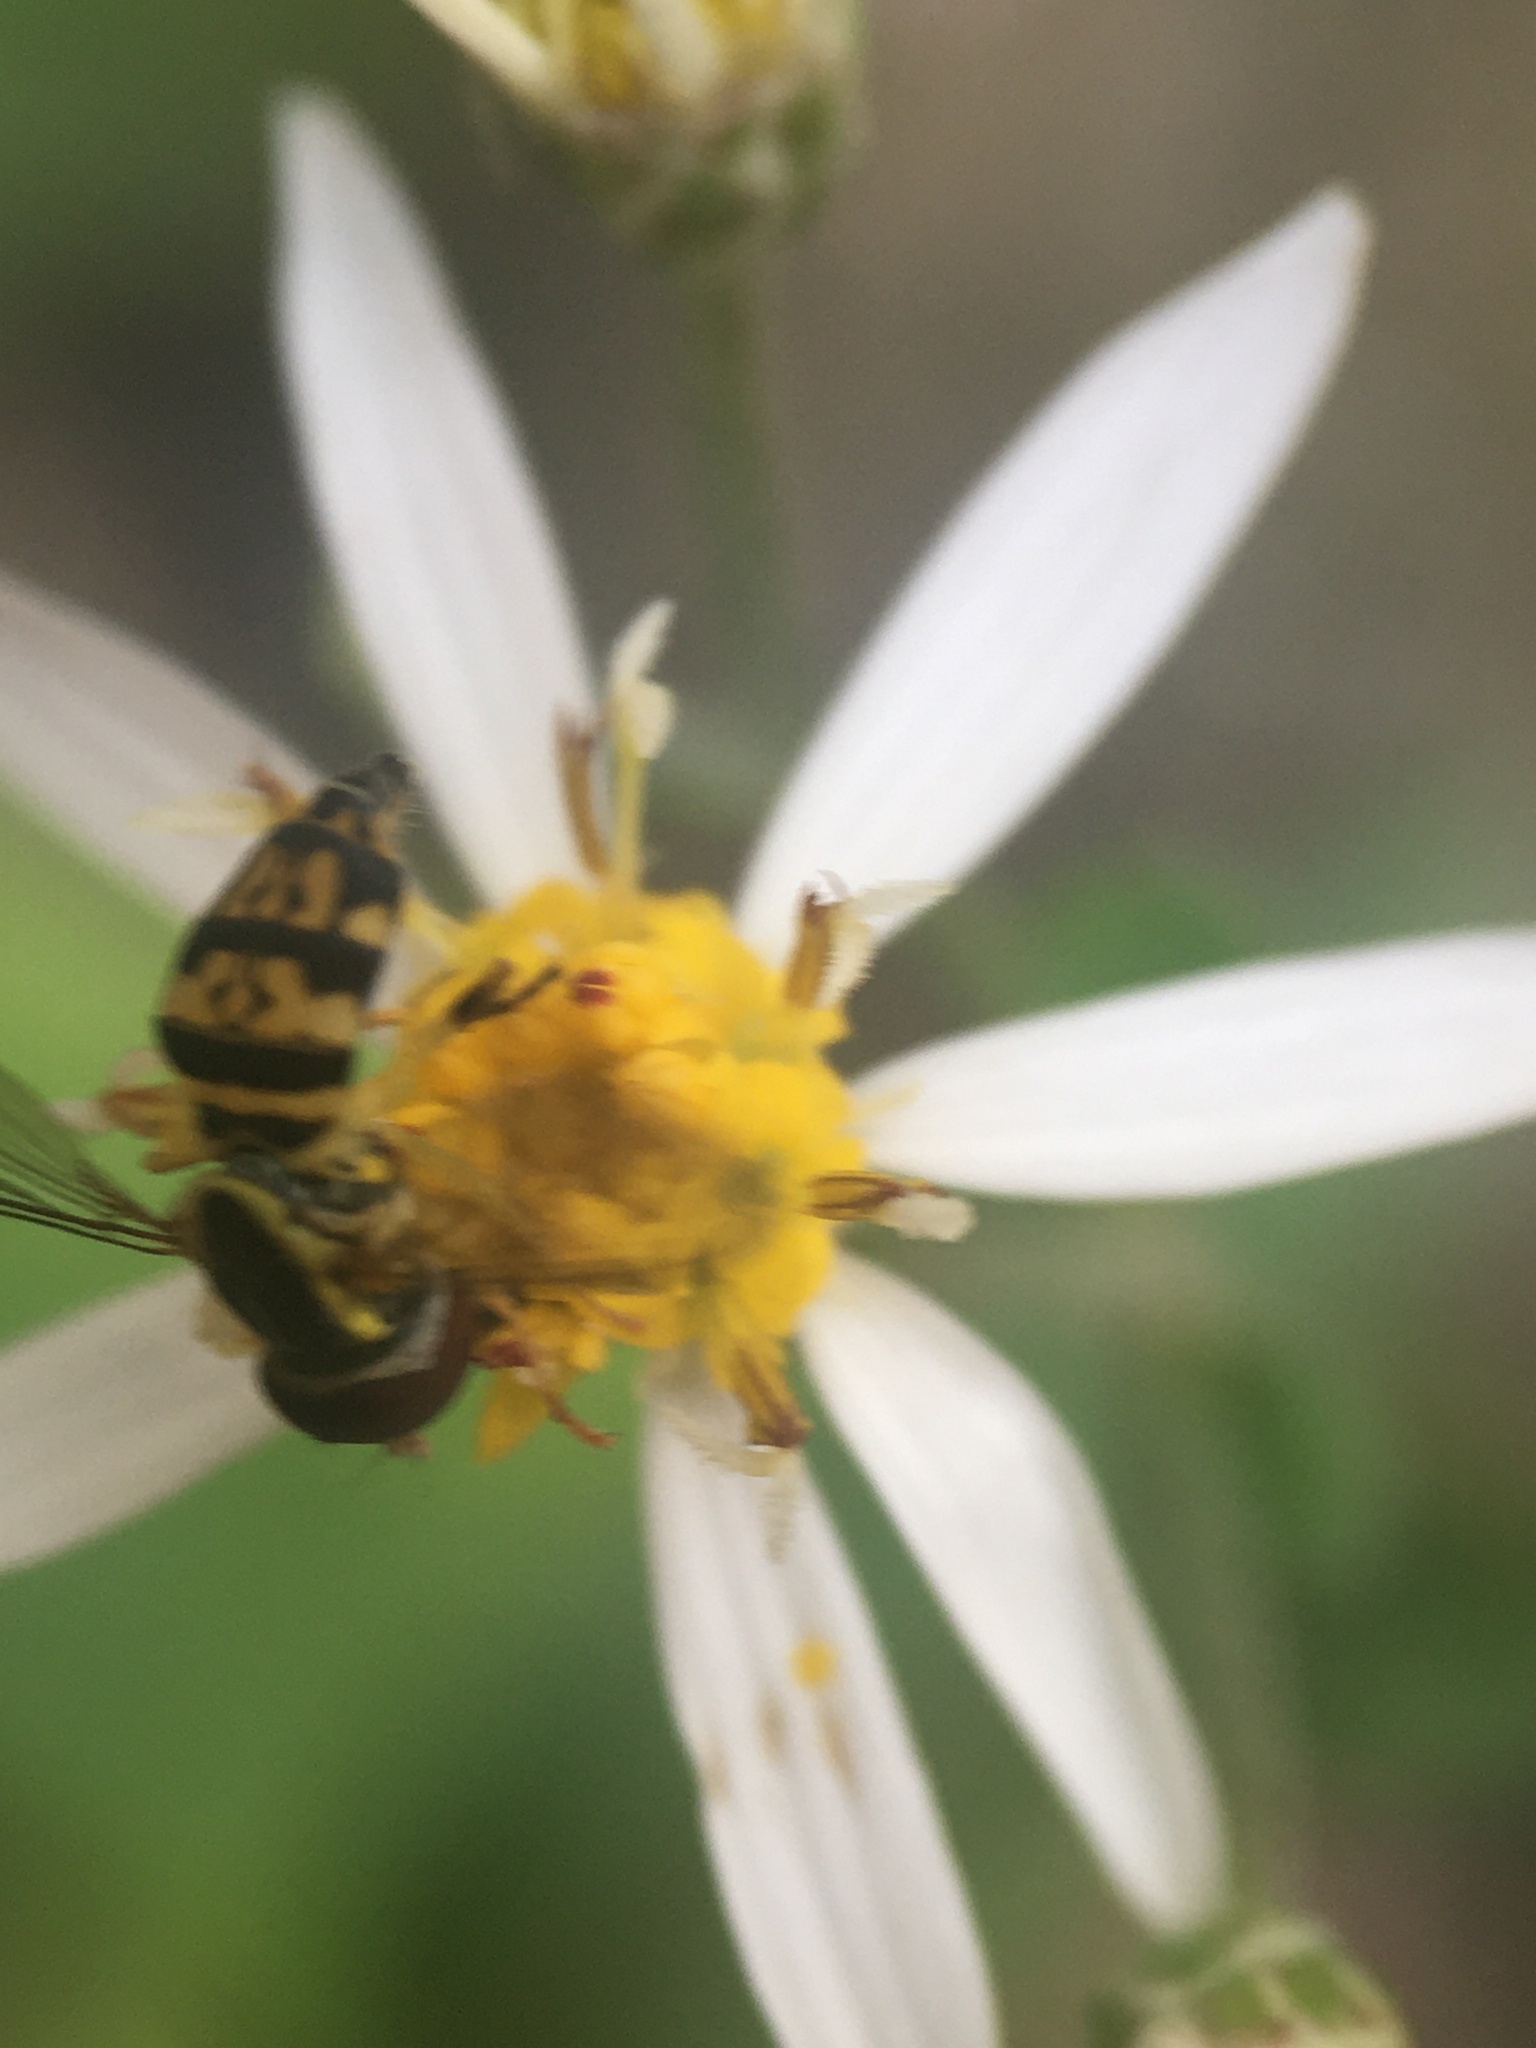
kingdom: Animalia
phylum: Arthropoda
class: Insecta
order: Diptera
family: Syrphidae
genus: Toxomerus
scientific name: Toxomerus geminatus
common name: Eastern calligrapher
